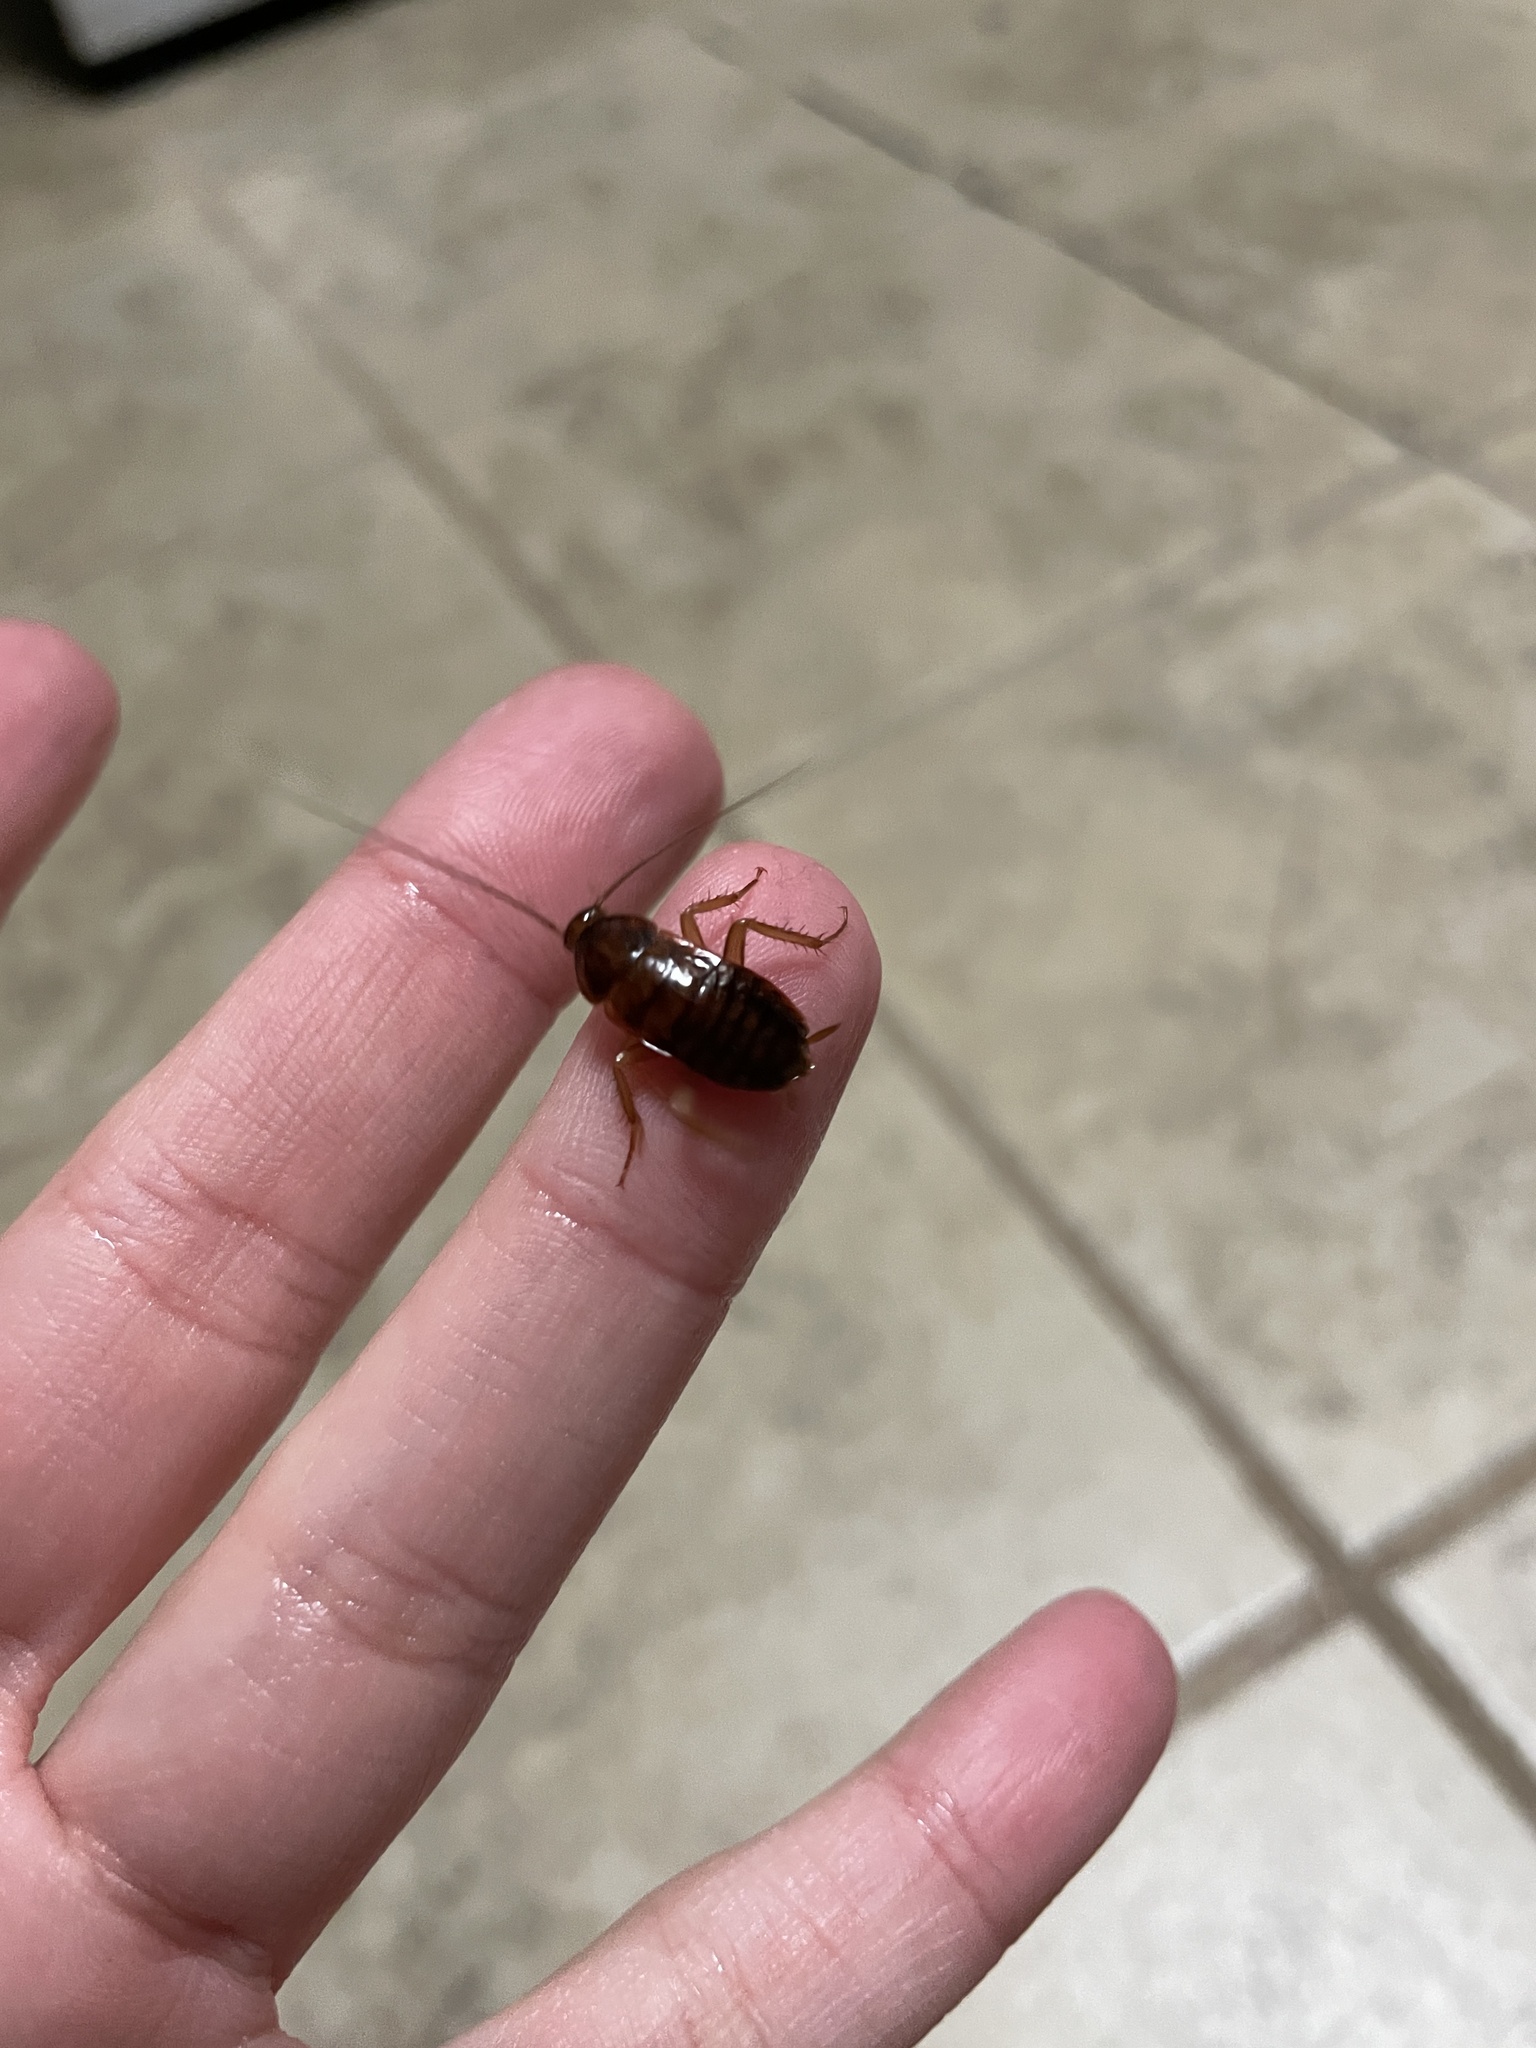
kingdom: Animalia
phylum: Arthropoda
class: Insecta
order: Blattodea
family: Blattidae
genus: Periplaneta
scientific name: Periplaneta americana
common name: American cockroach
